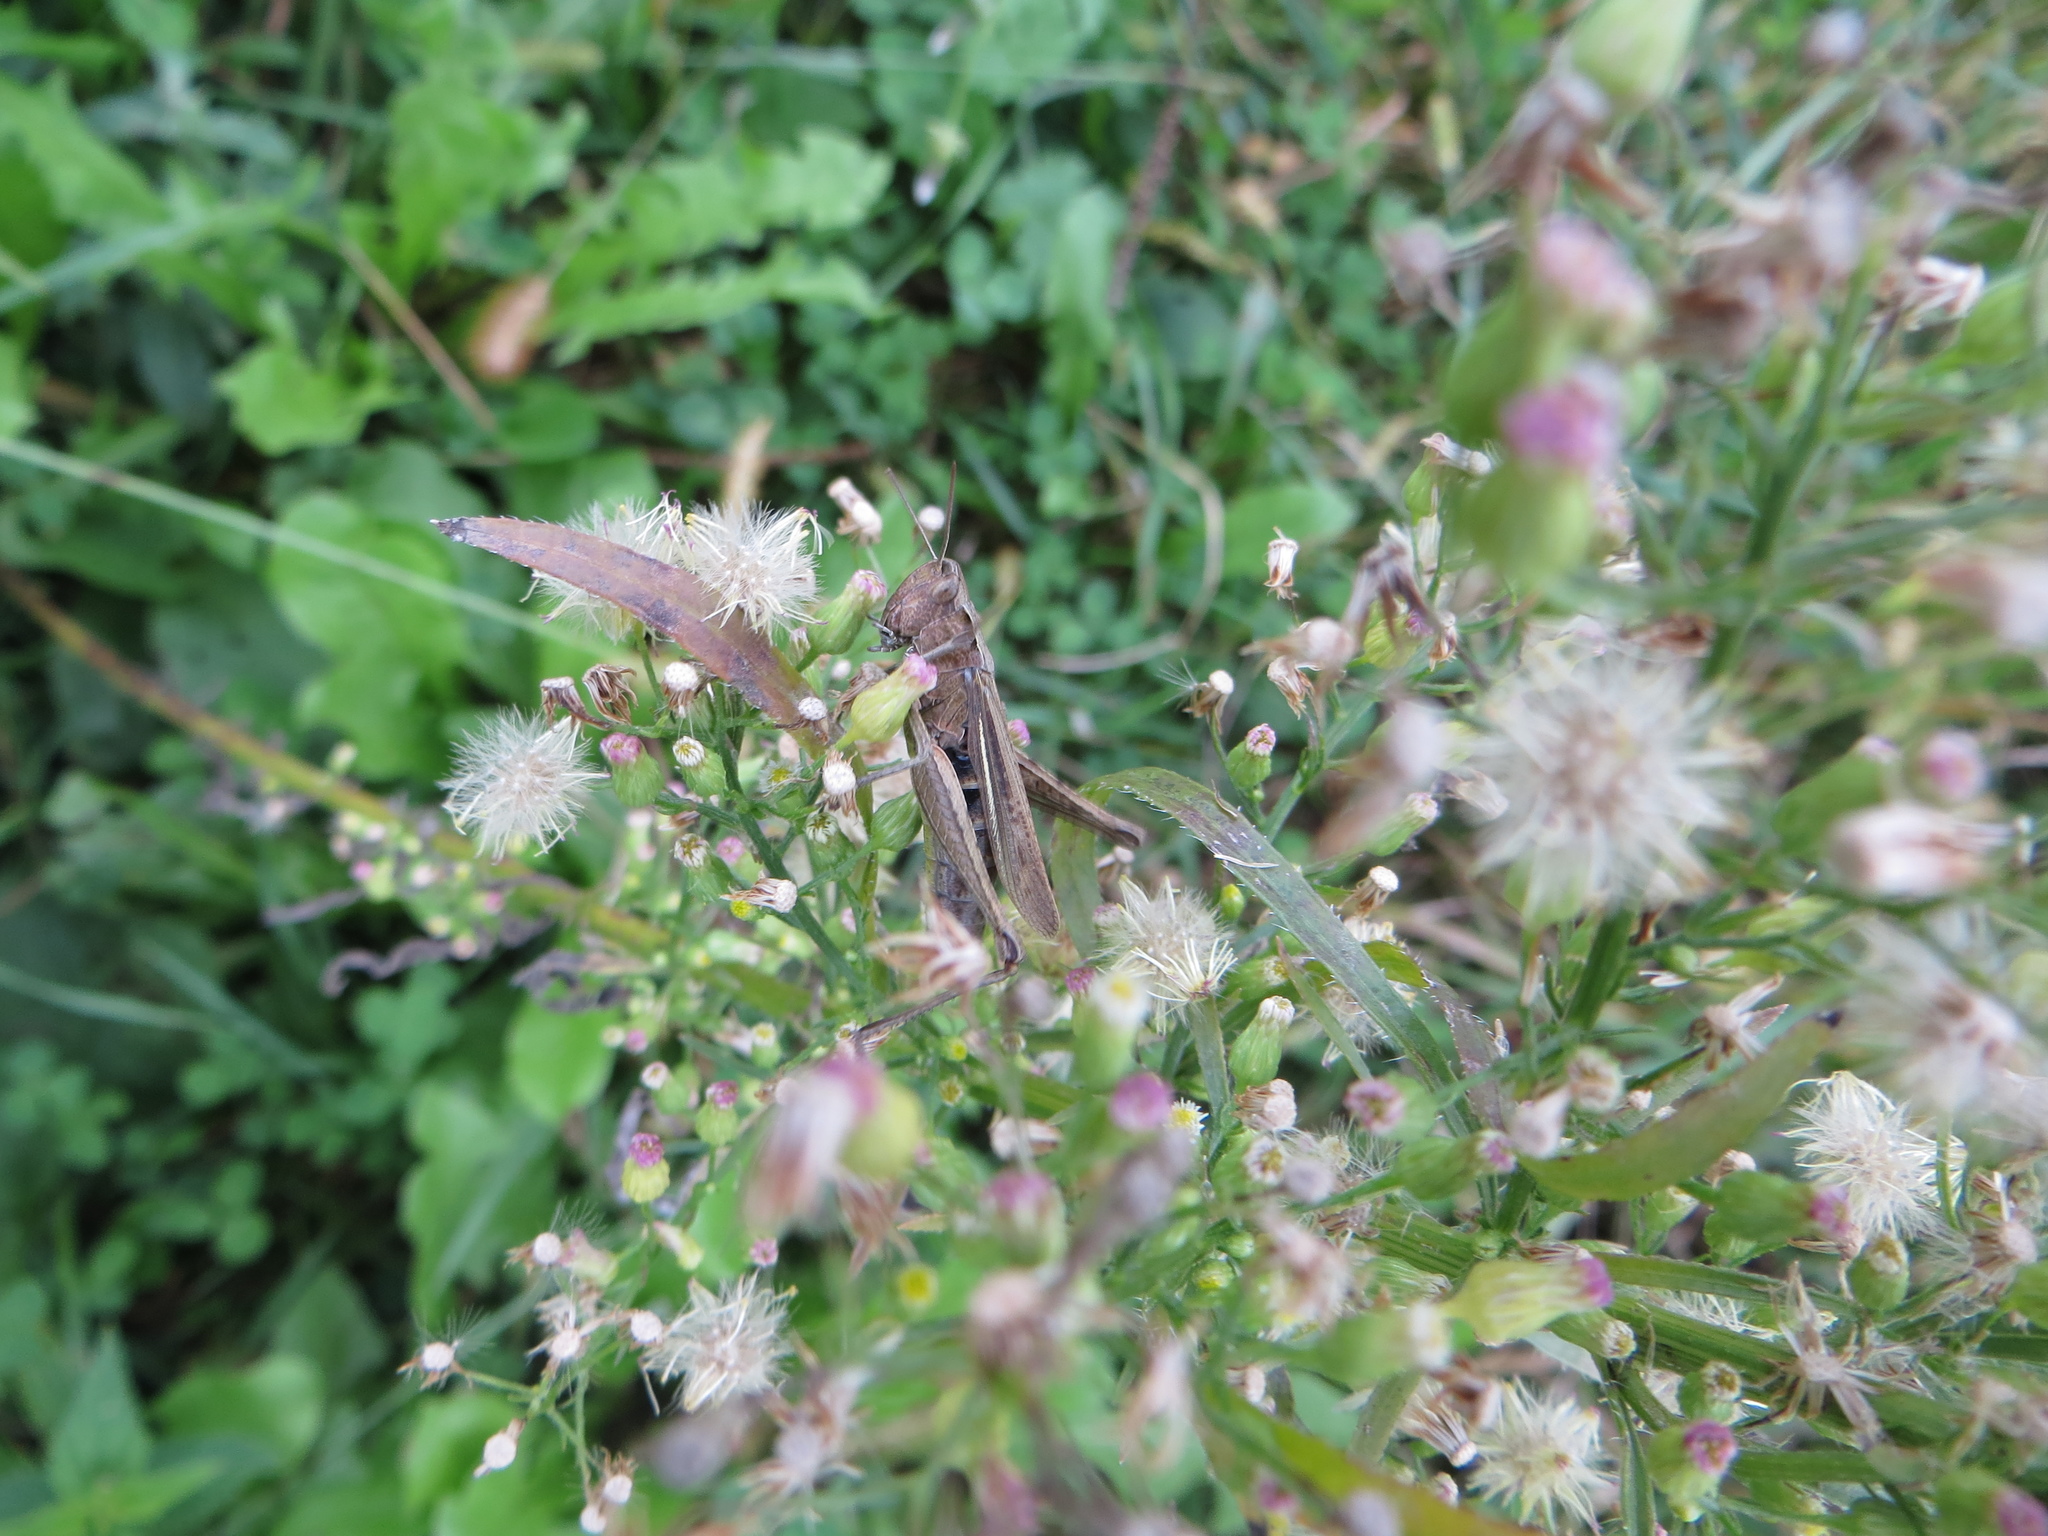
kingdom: Animalia
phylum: Arthropoda
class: Insecta
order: Orthoptera
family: Acrididae
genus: Chorthippus
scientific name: Chorthippus dorsatus
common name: Steppe grasshopper
